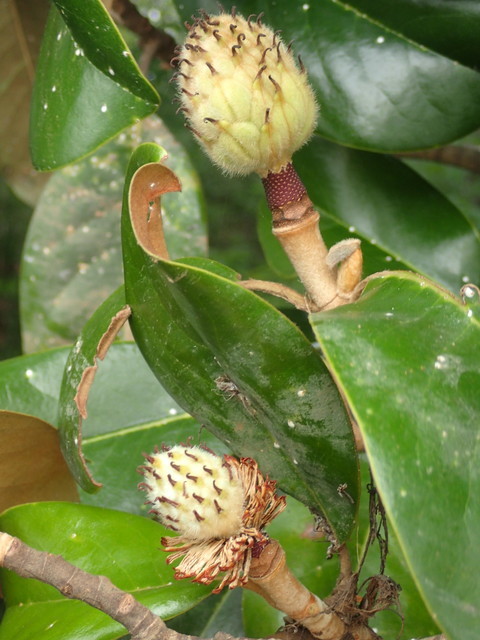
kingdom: Plantae
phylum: Tracheophyta
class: Magnoliopsida
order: Magnoliales
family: Magnoliaceae
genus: Magnolia
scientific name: Magnolia grandiflora
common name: Southern magnolia
